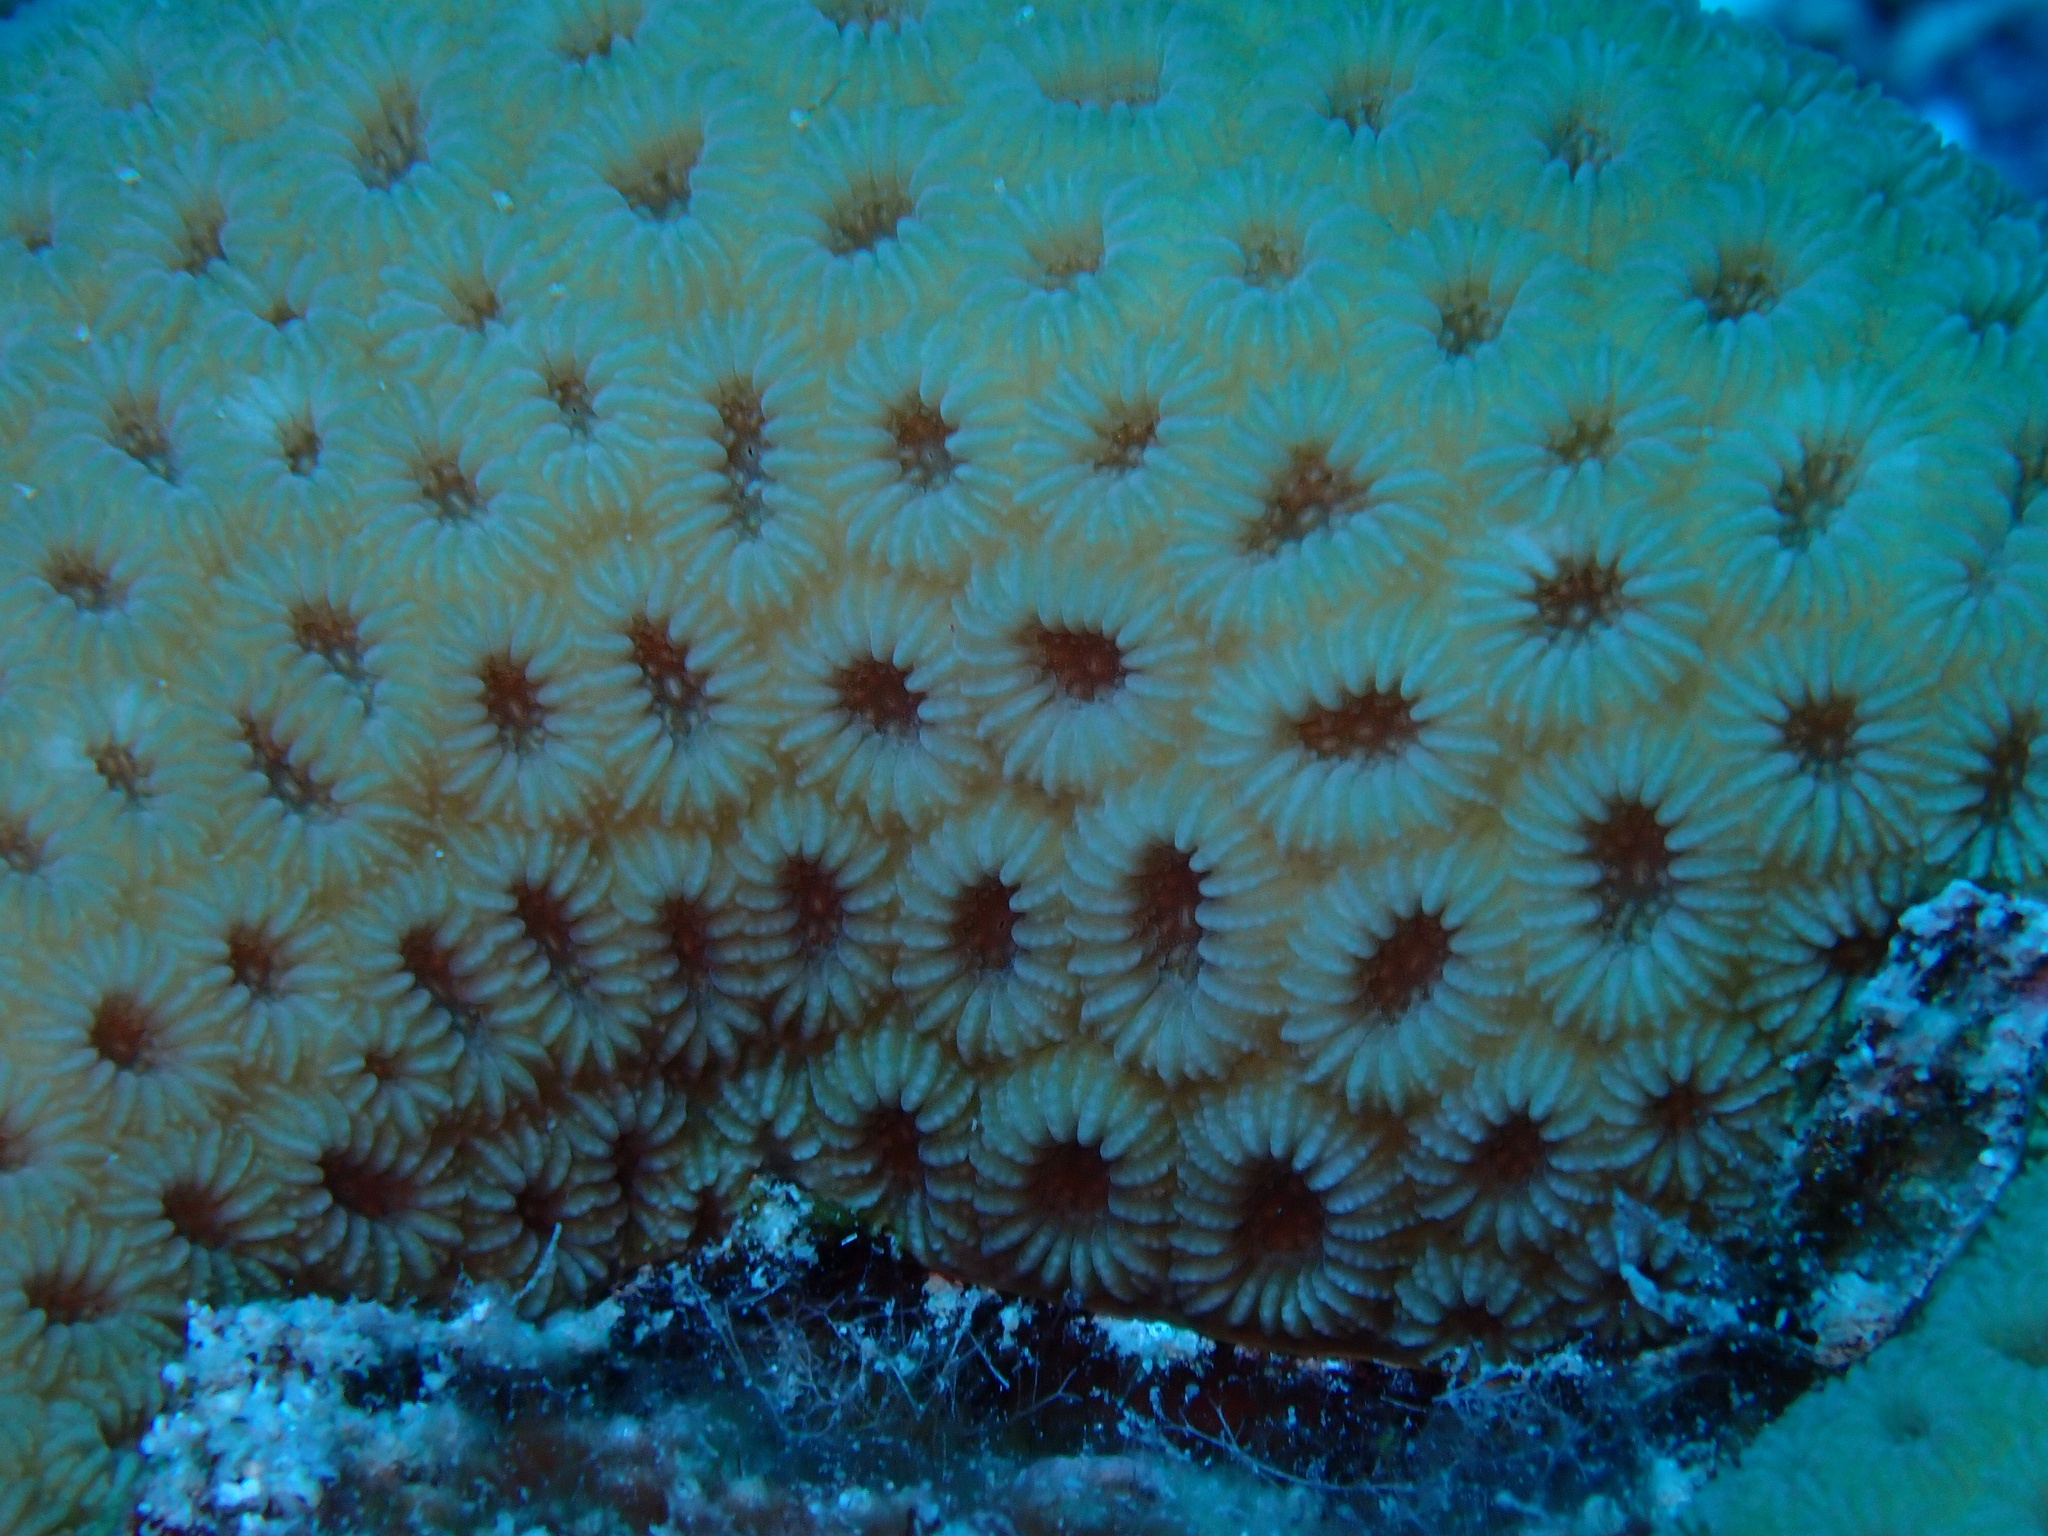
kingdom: Animalia
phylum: Cnidaria
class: Anthozoa
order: Scleractinia
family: Plesiastreidae
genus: Plesiastrea
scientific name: Plesiastrea peroni
